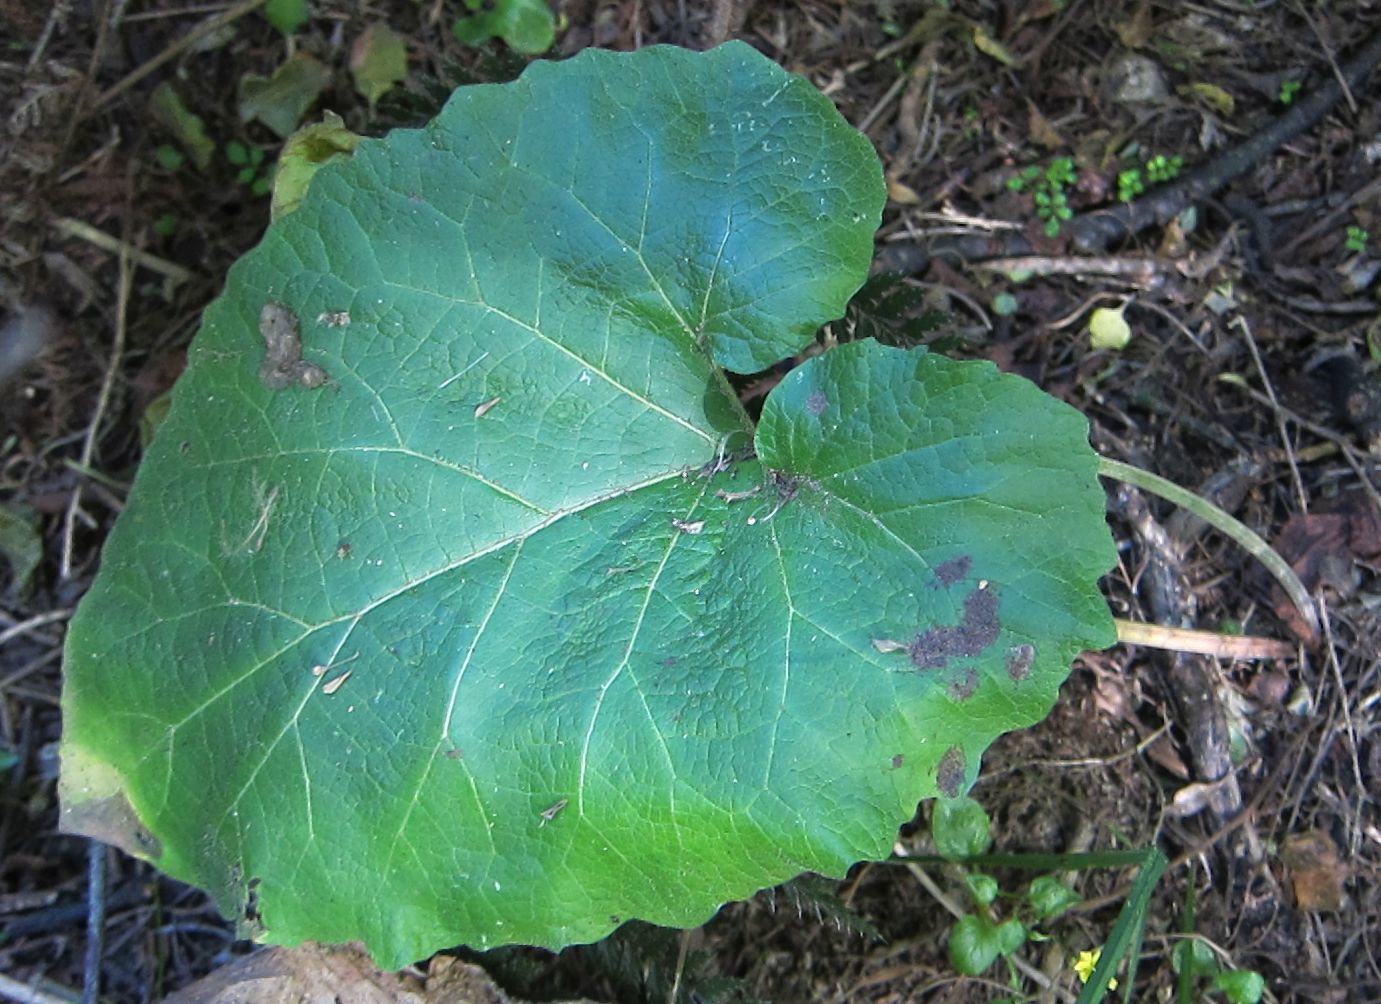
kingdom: Plantae
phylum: Tracheophyta
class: Magnoliopsida
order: Asterales
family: Asteraceae
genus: Arctium
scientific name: Arctium minus
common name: Lesser burdock
